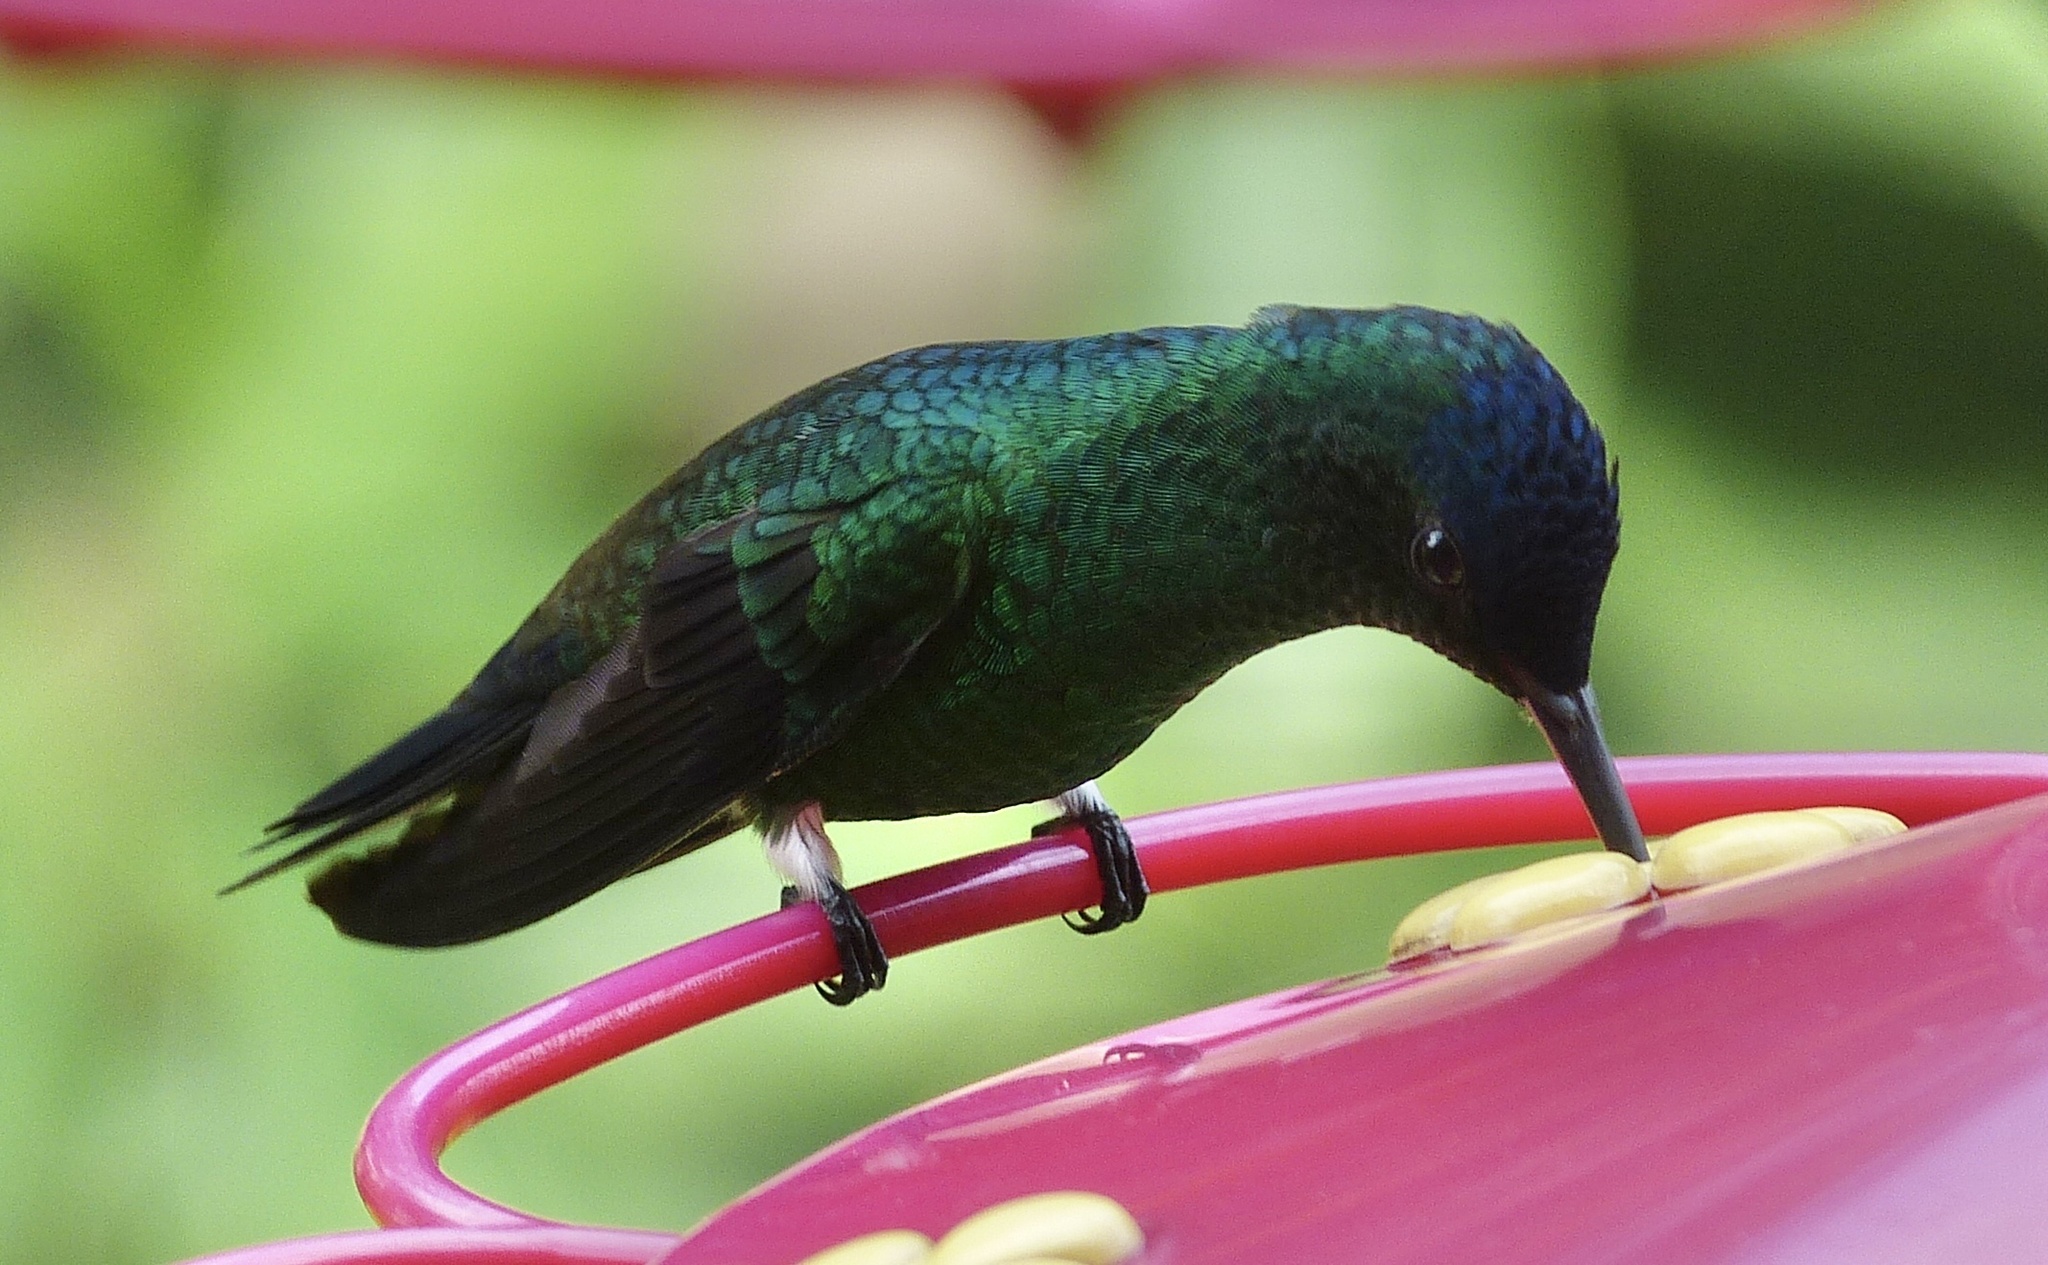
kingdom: Animalia
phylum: Chordata
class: Aves
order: Apodiformes
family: Trochilidae
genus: Saucerottia
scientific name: Saucerottia cyanifrons
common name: Indigo-capped hummingbird
